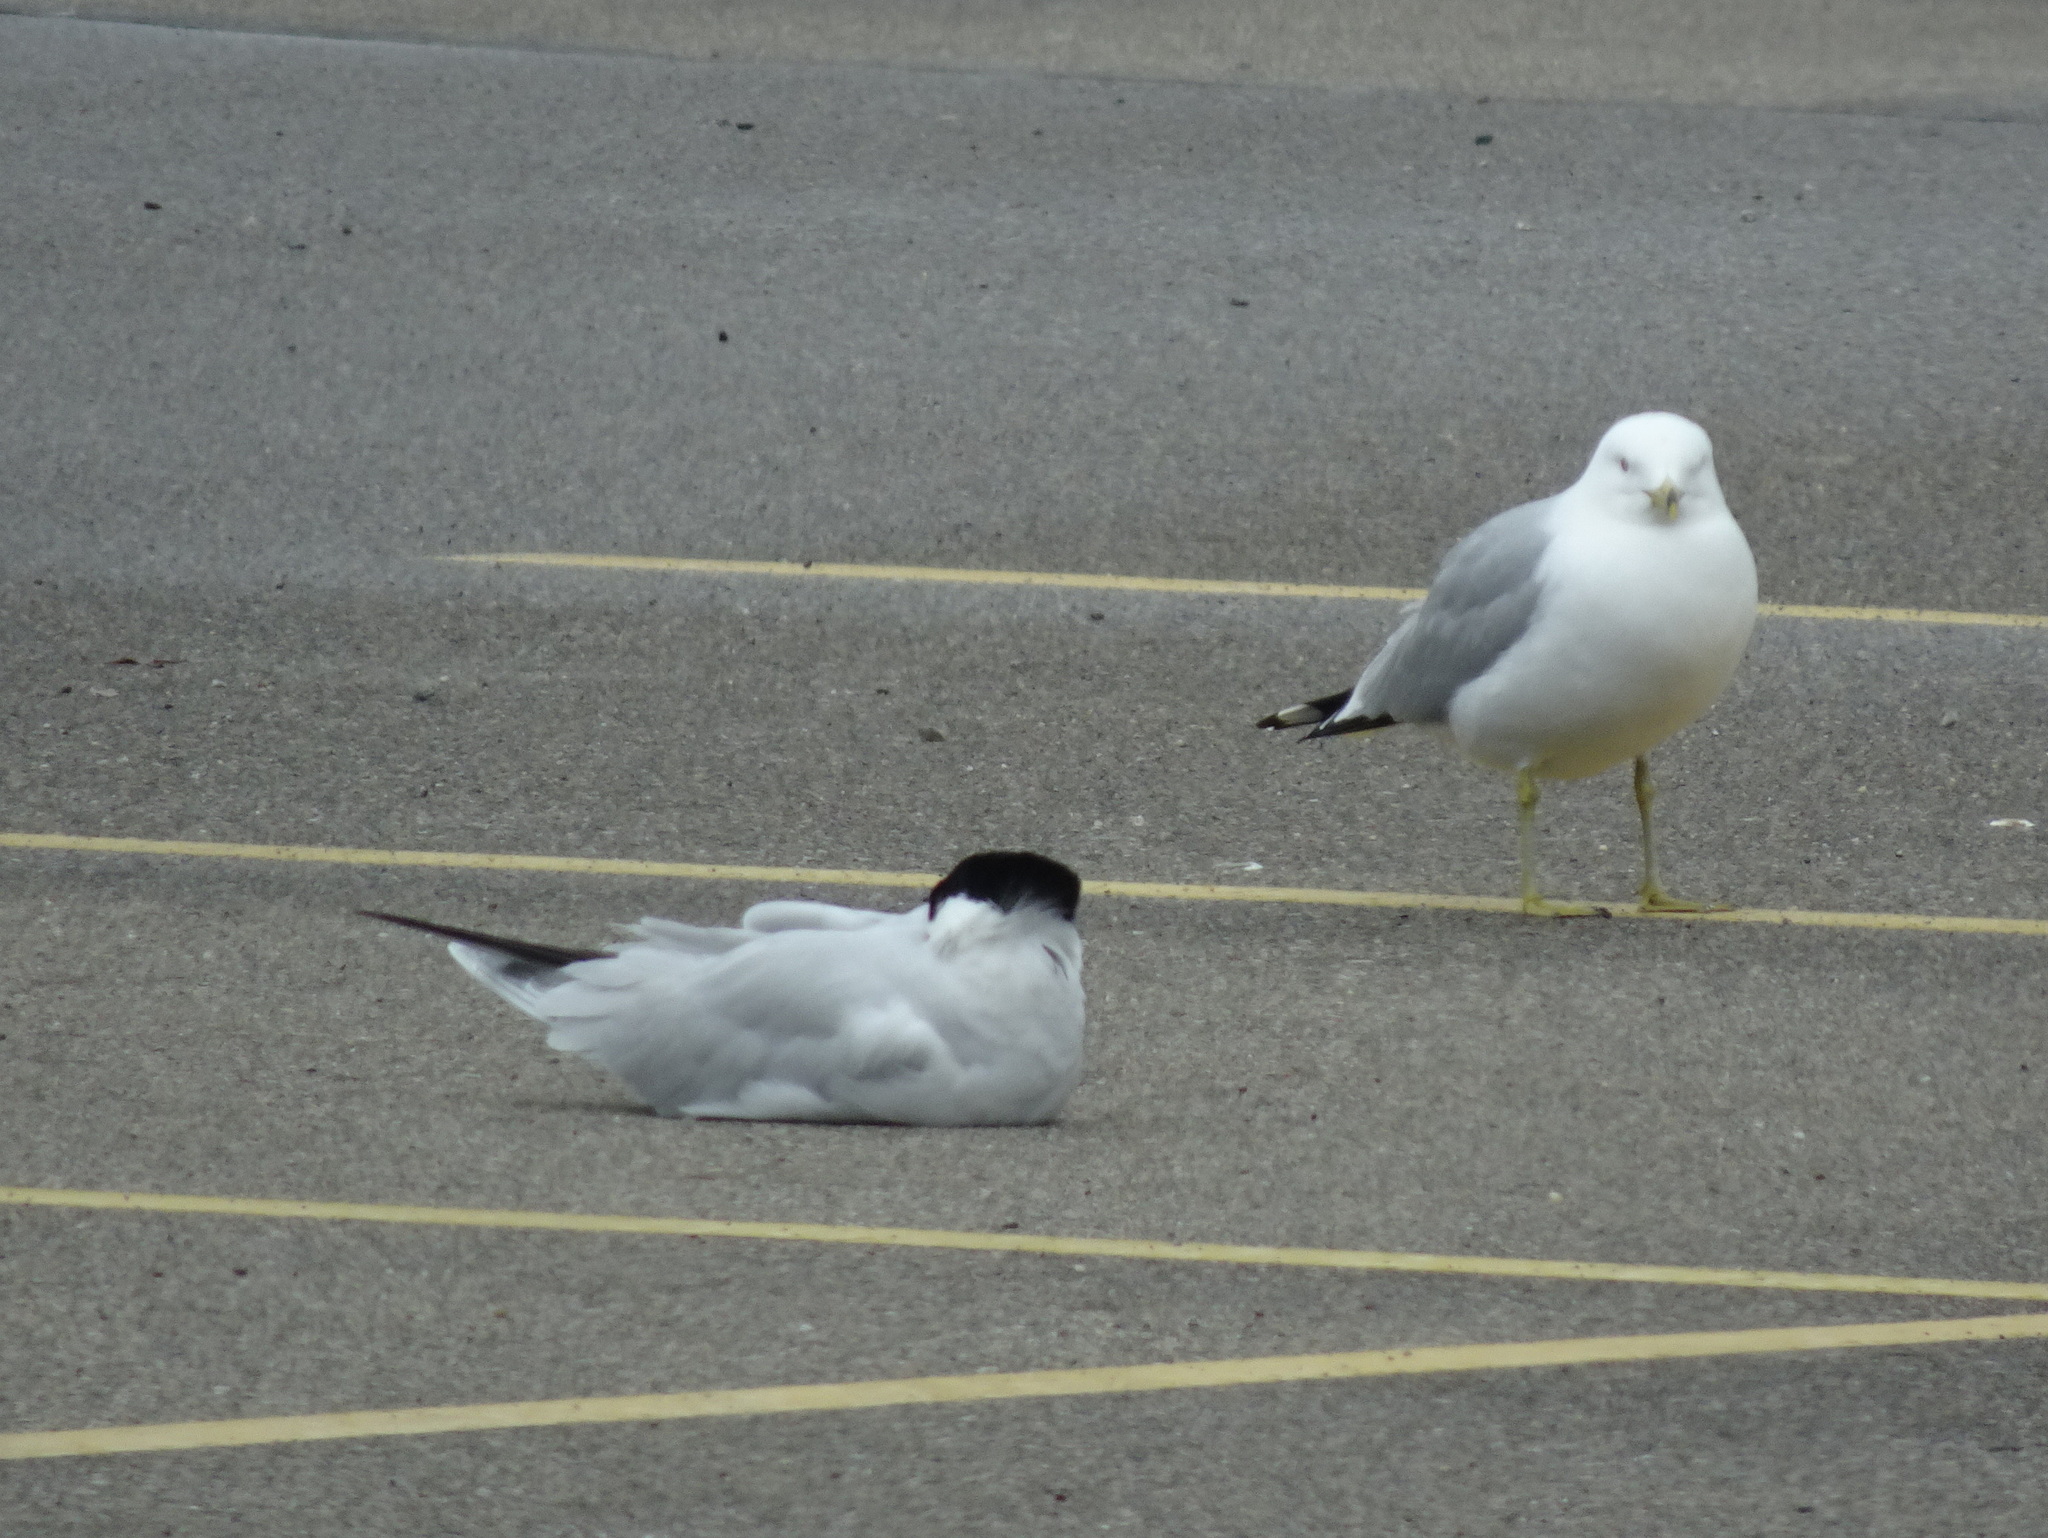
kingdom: Animalia
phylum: Chordata
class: Aves
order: Charadriiformes
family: Laridae
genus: Hydroprogne
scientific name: Hydroprogne caspia
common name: Caspian tern
